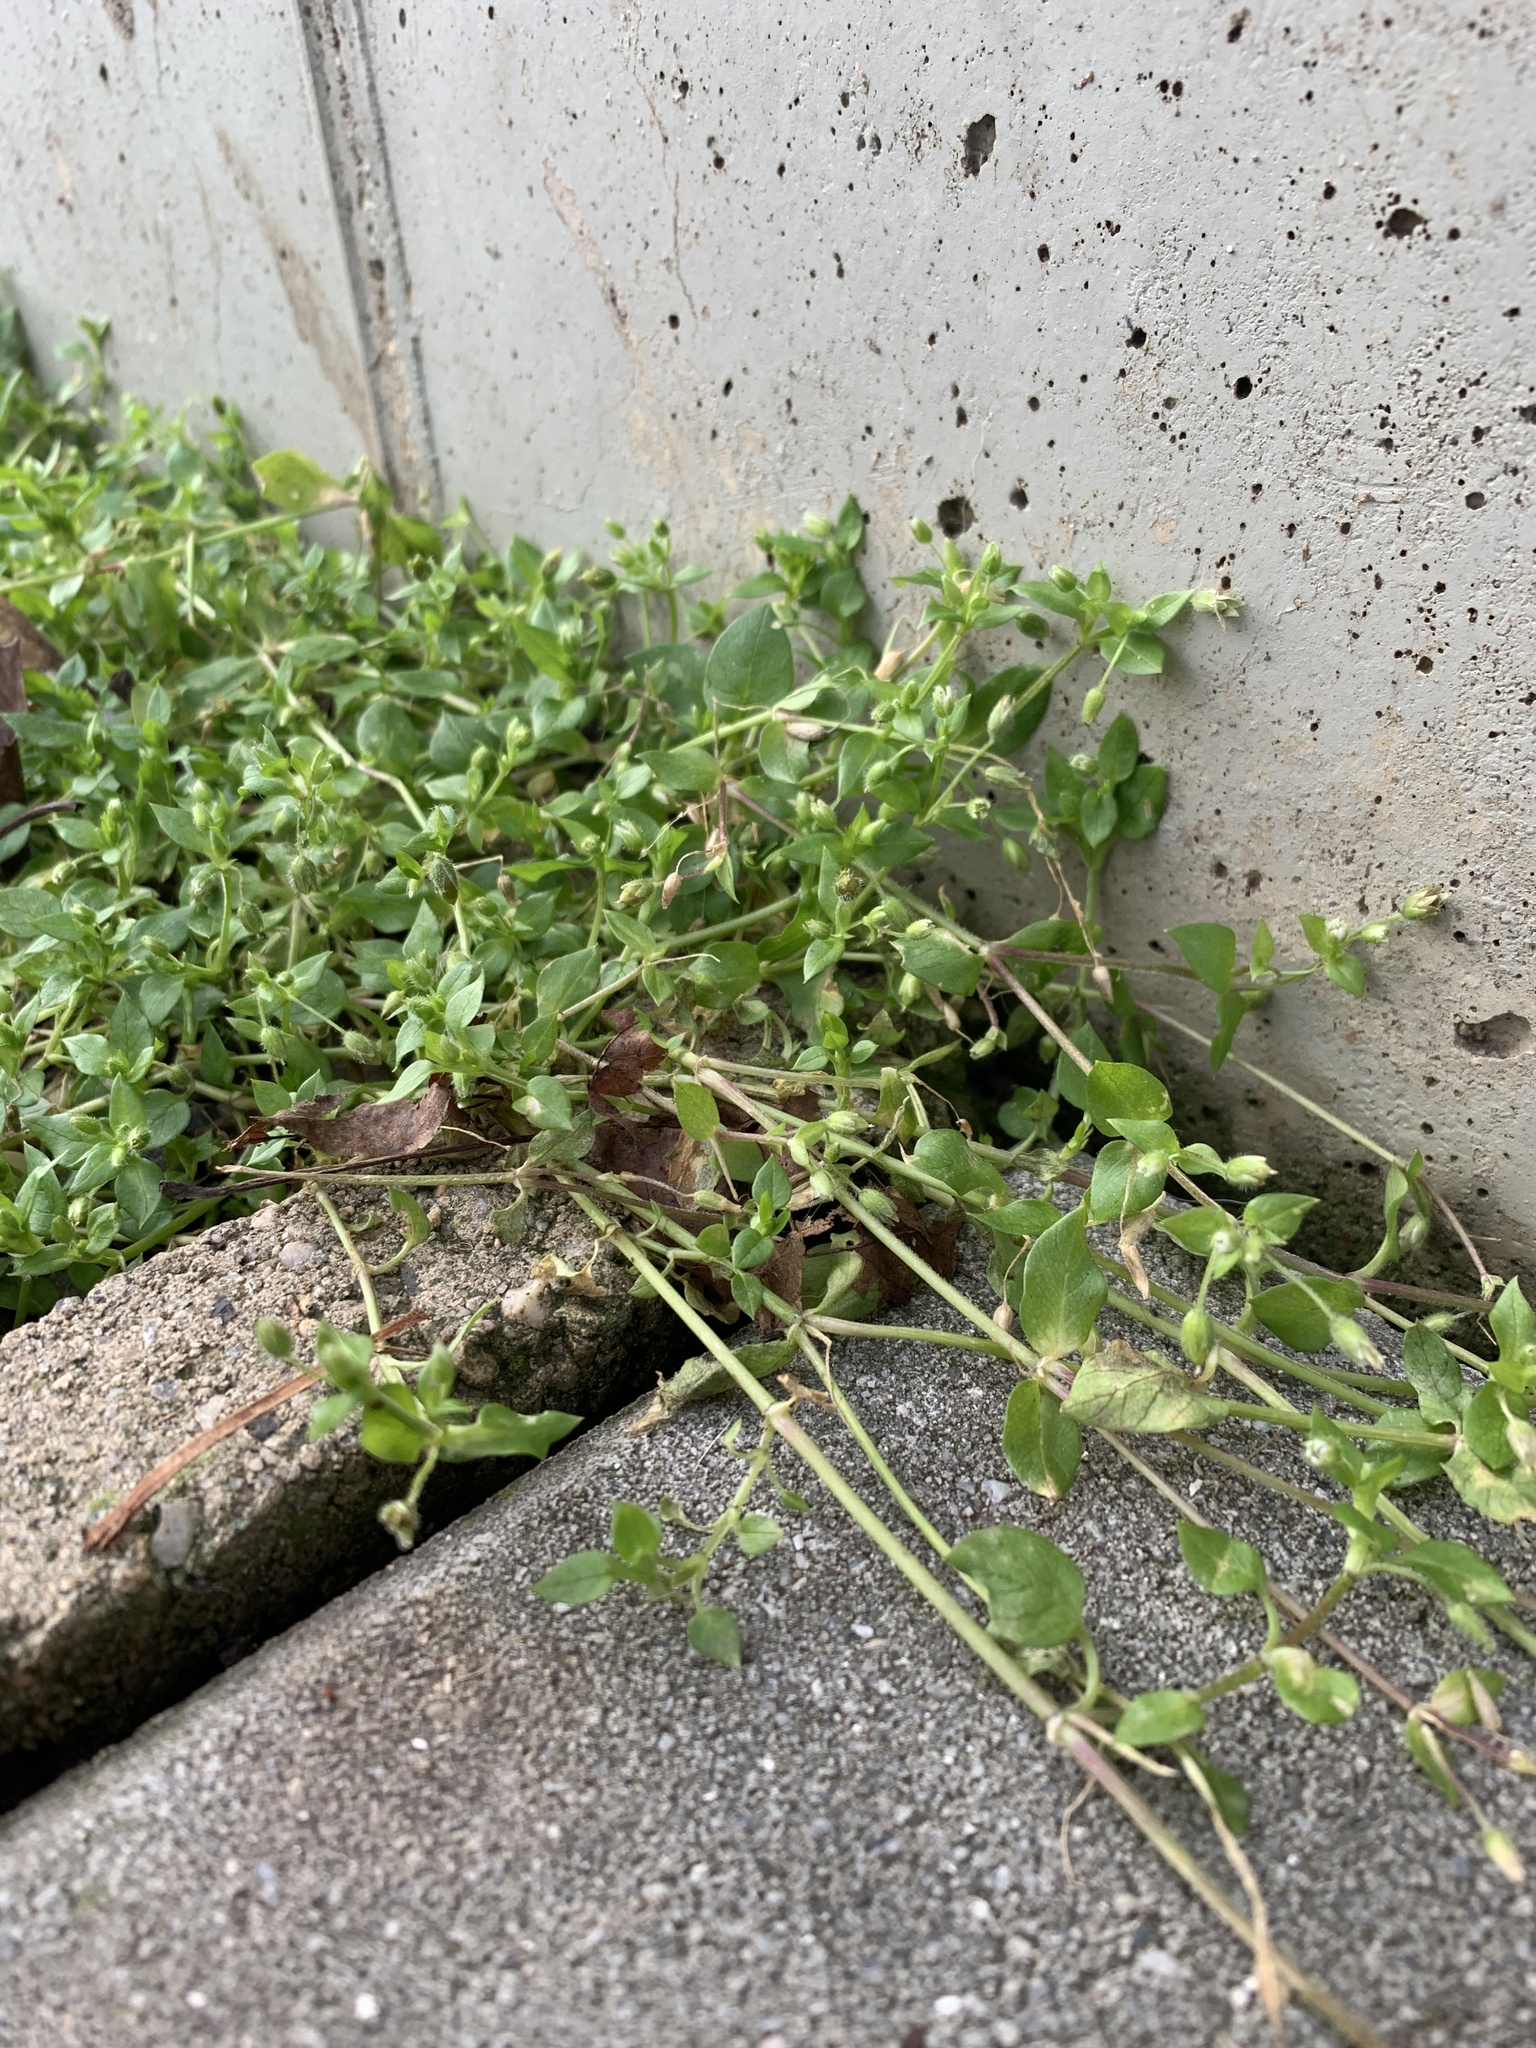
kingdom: Plantae
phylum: Tracheophyta
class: Magnoliopsida
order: Caryophyllales
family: Caryophyllaceae
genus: Stellaria
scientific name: Stellaria
